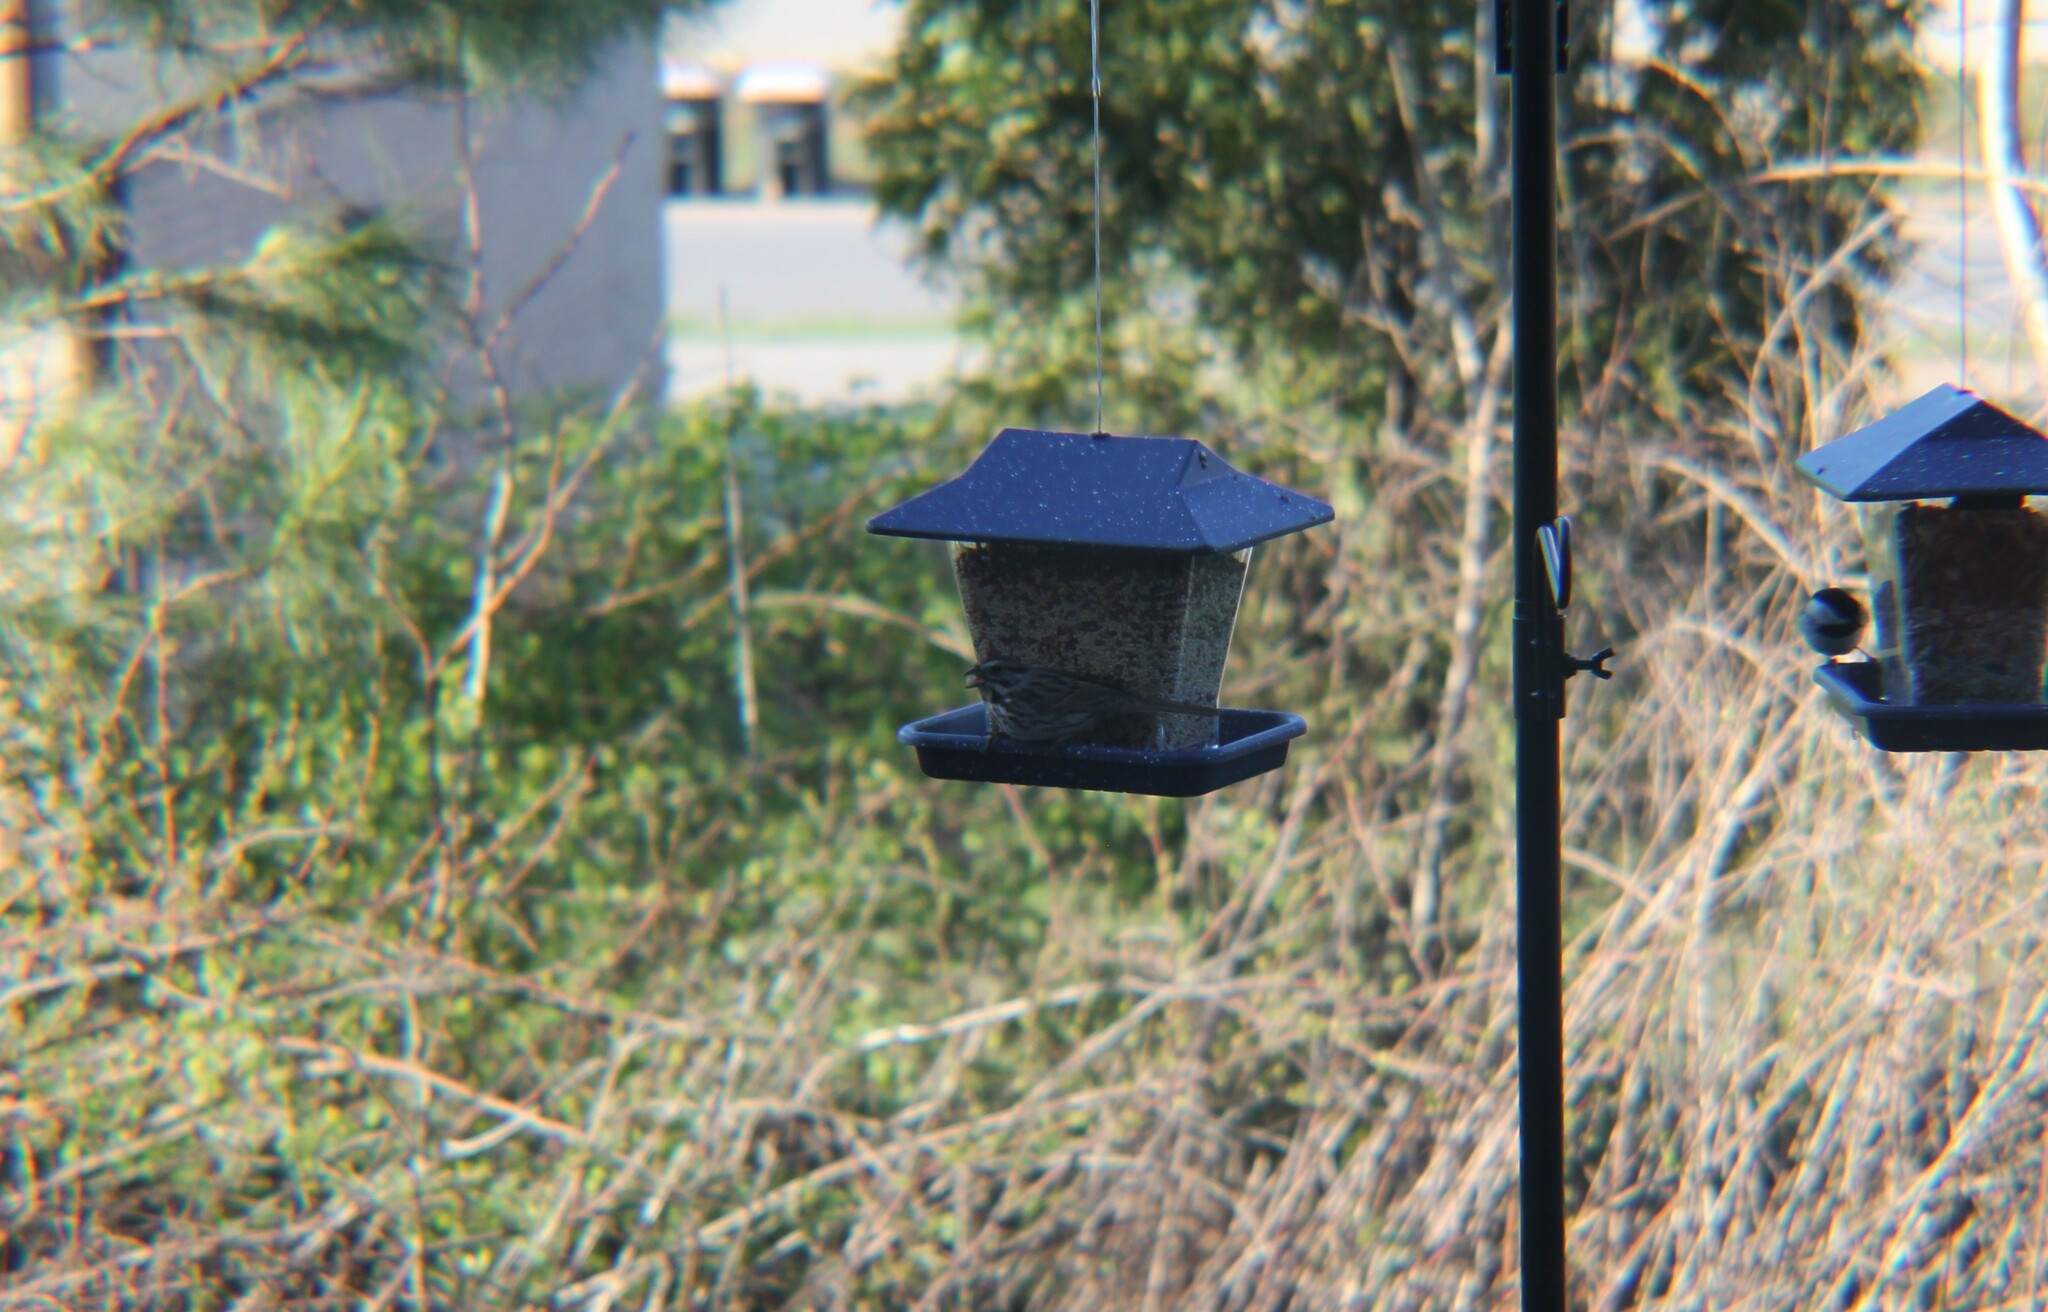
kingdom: Animalia
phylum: Chordata
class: Aves
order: Passeriformes
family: Passerellidae
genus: Melospiza
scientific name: Melospiza melodia
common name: Song sparrow
